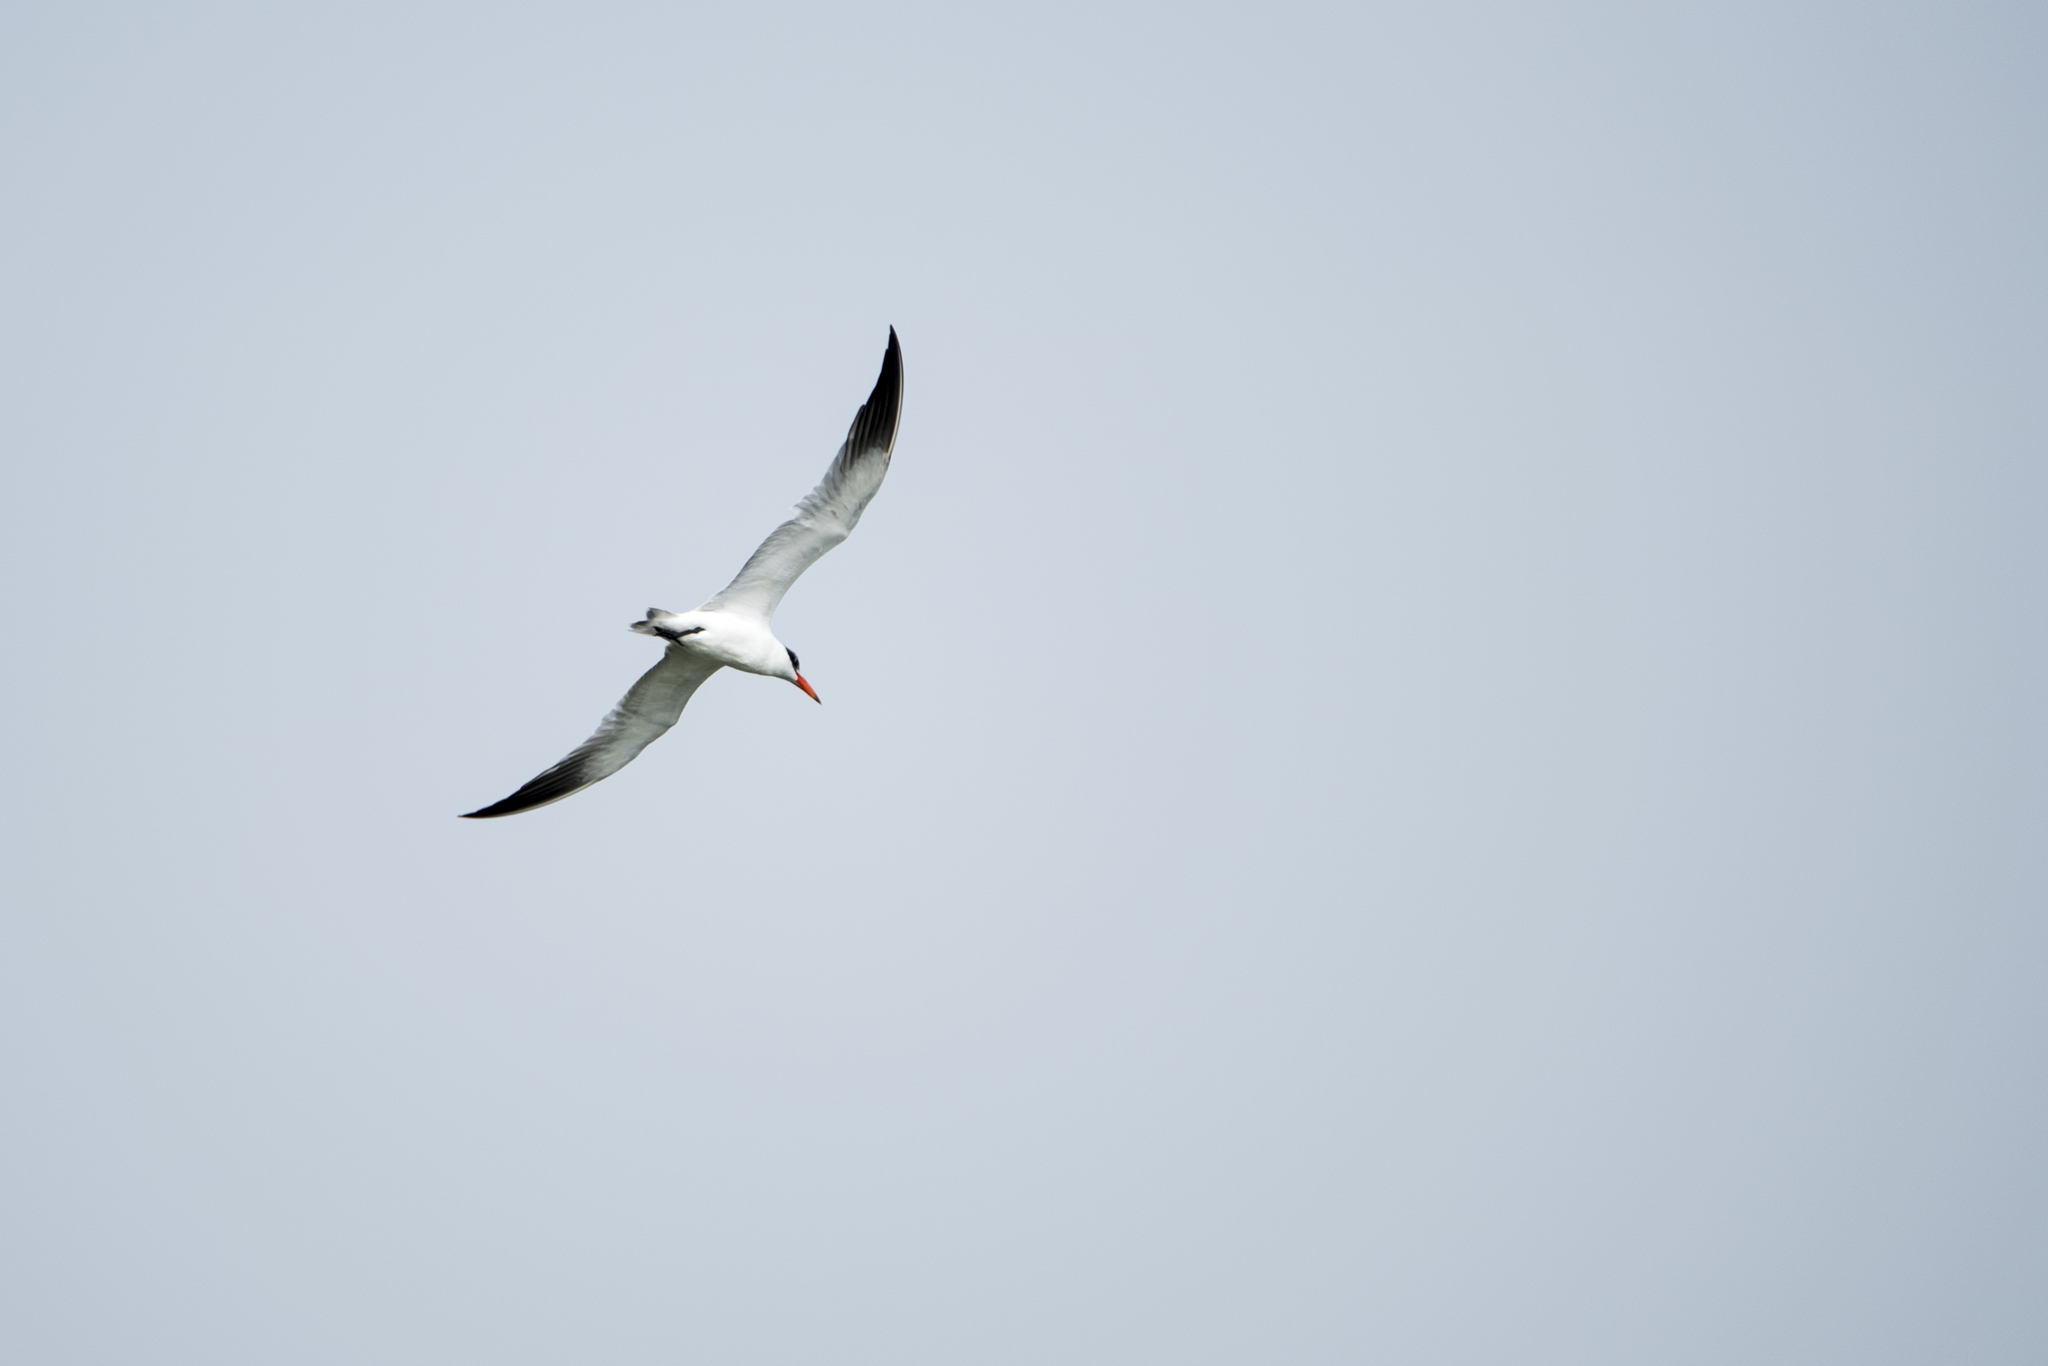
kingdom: Animalia
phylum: Chordata
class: Aves
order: Charadriiformes
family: Laridae
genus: Hydroprogne
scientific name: Hydroprogne caspia
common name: Caspian tern
